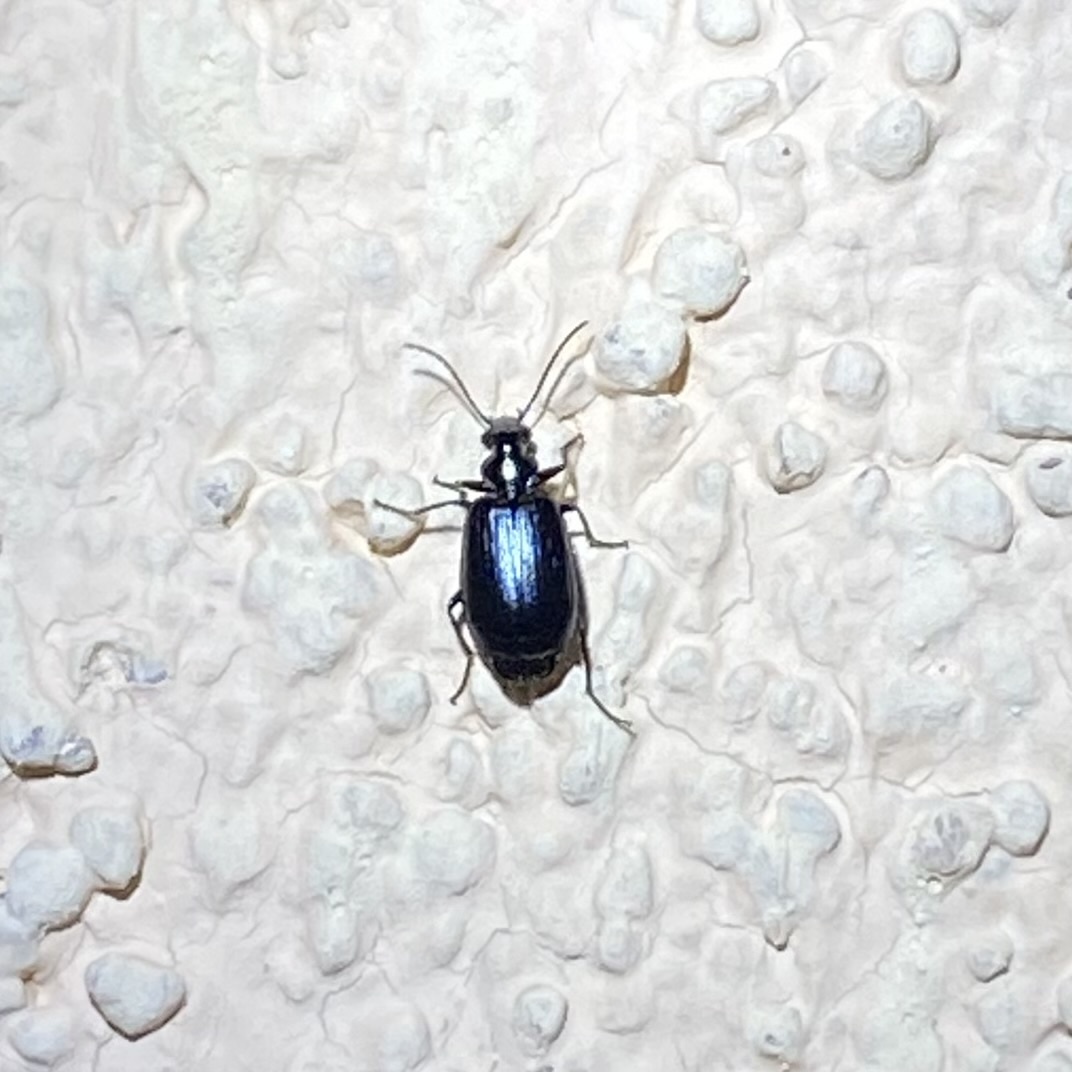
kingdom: Animalia
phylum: Arthropoda
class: Insecta
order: Coleoptera
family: Carabidae
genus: Lebia
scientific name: Lebia
